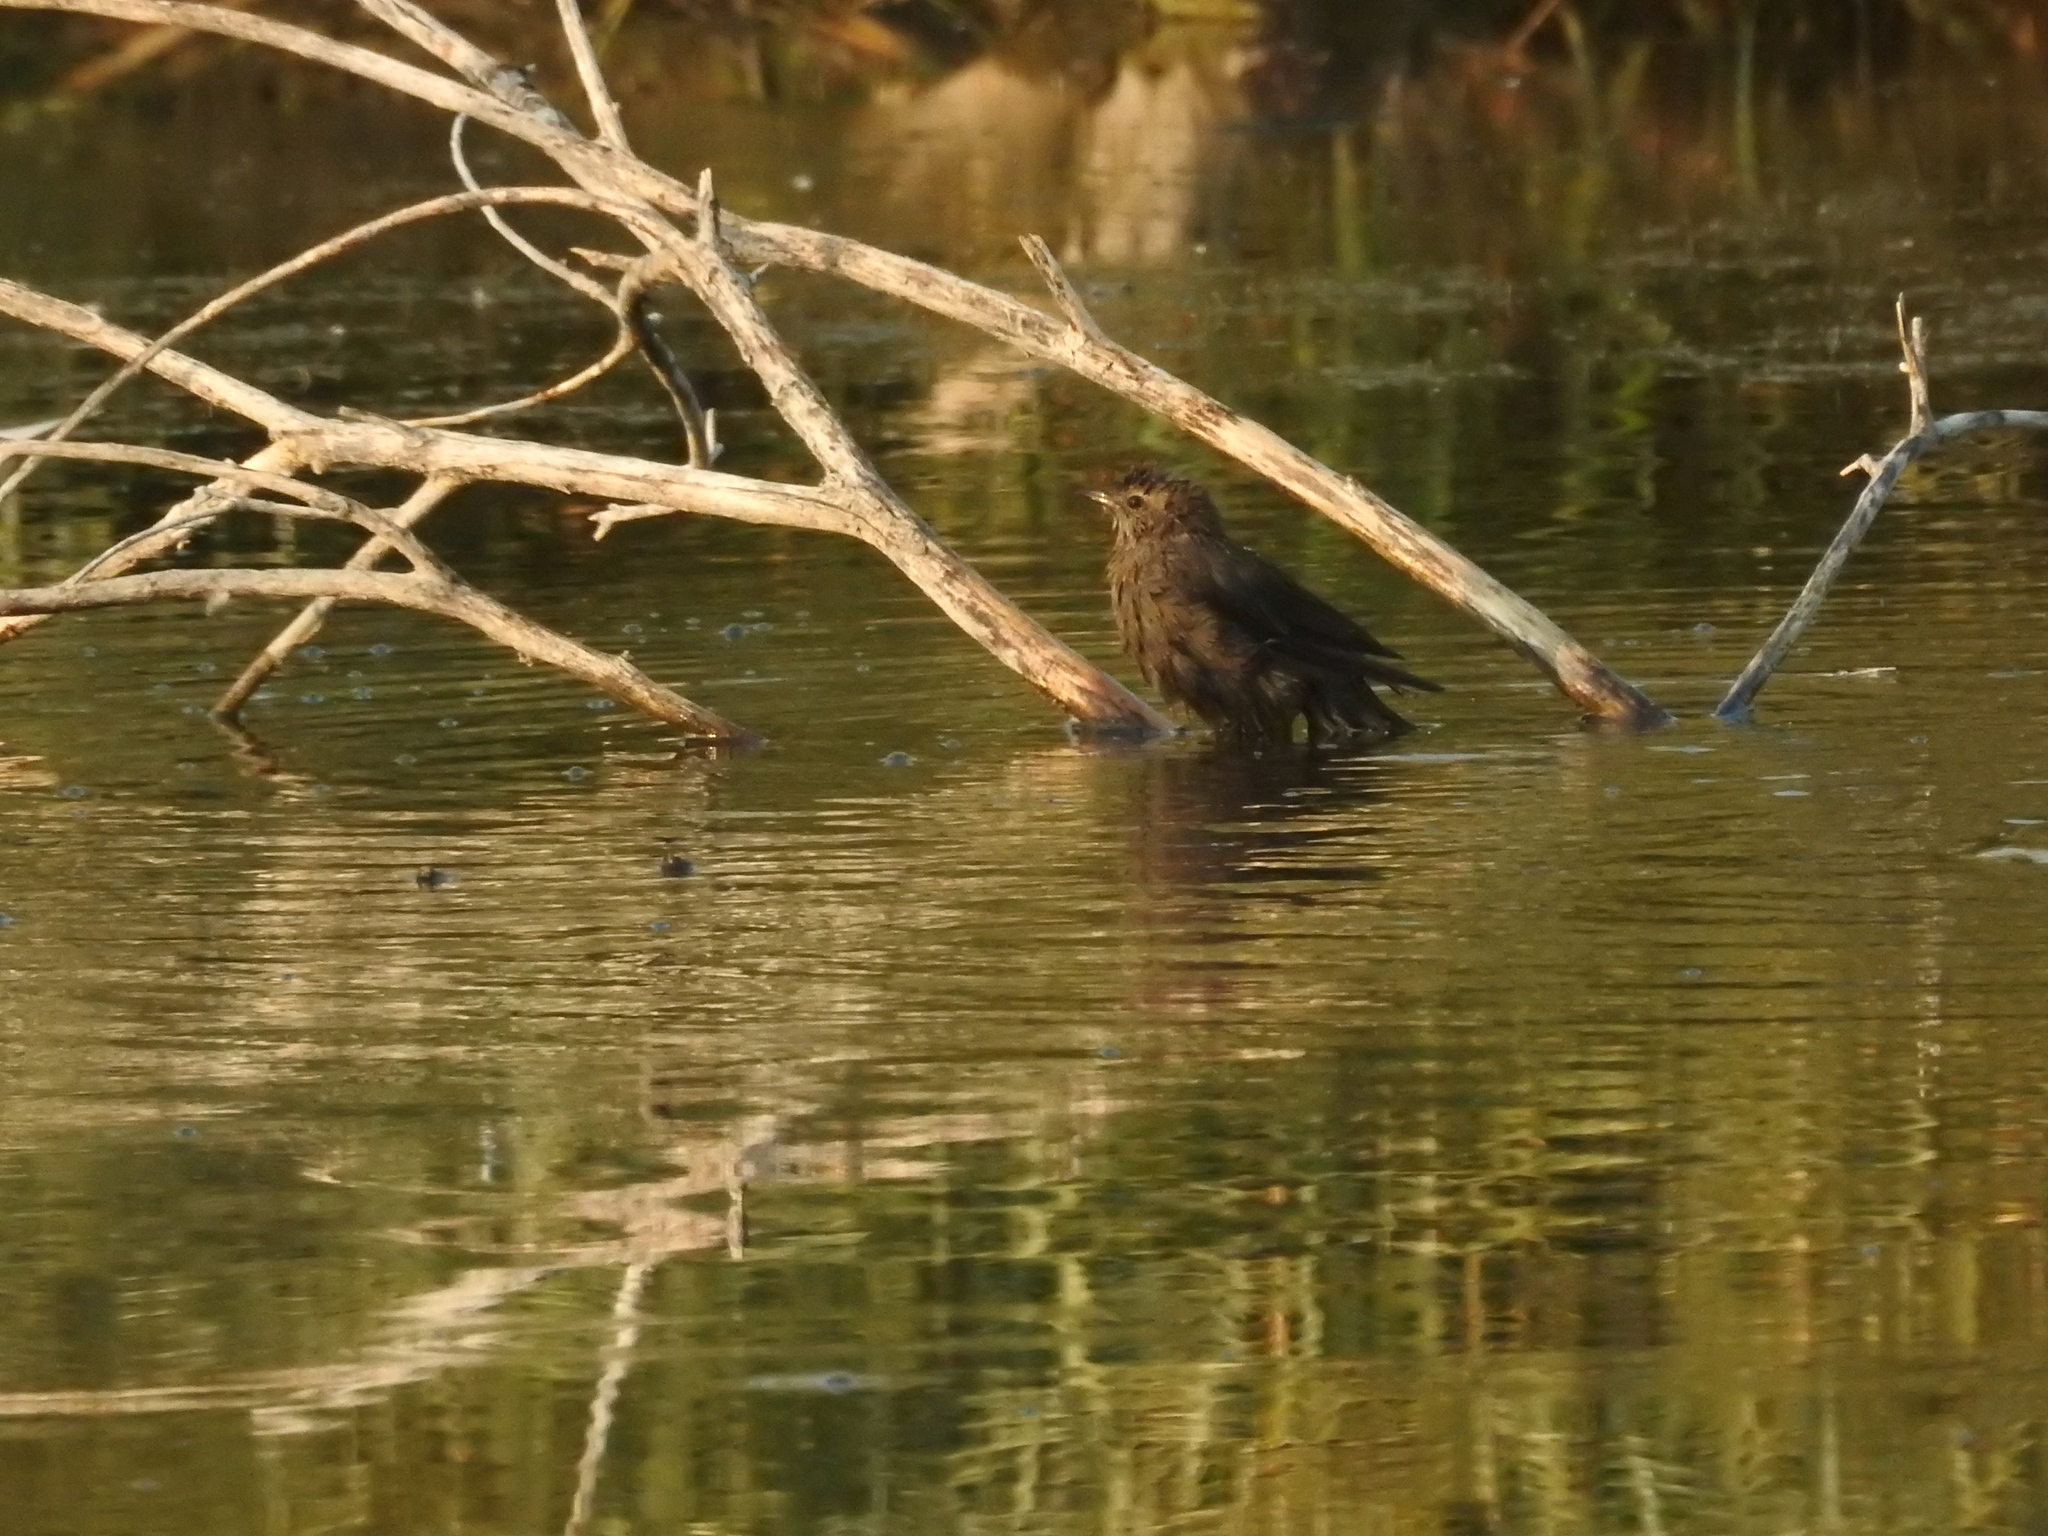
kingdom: Animalia
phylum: Chordata
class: Aves
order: Passeriformes
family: Icteridae
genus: Euphagus
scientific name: Euphagus cyanocephalus
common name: Brewer's blackbird
